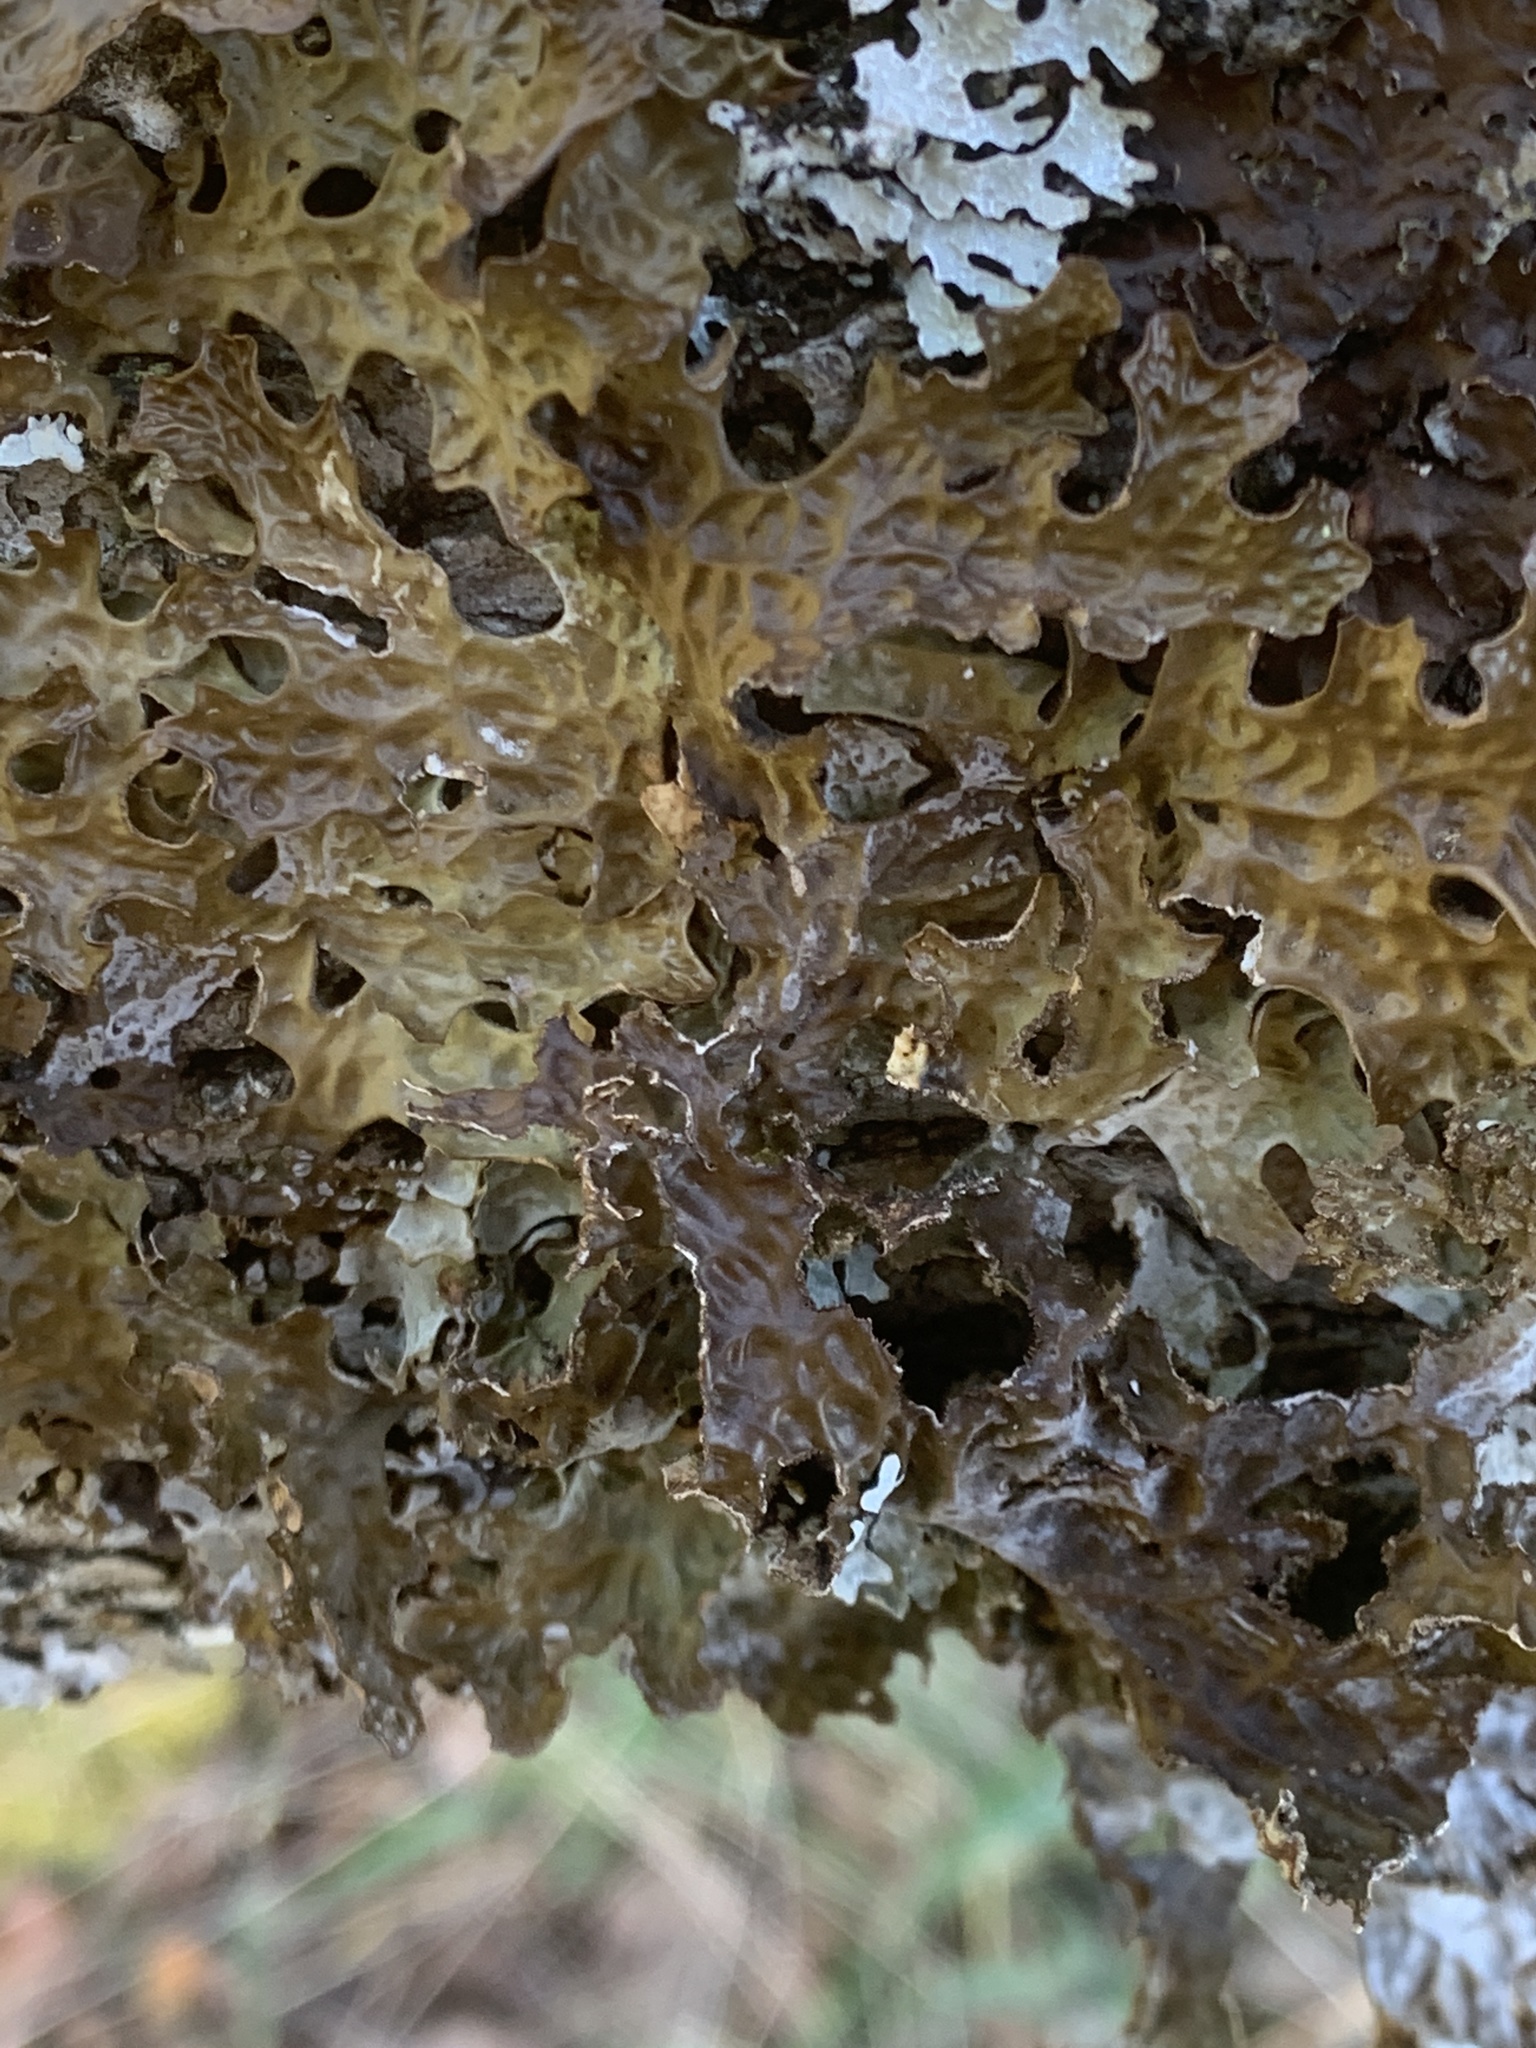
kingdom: Fungi
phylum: Ascomycota
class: Lecanoromycetes
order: Peltigerales
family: Lobariaceae
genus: Lobaria
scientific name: Lobaria pulmonaria
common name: Lungwort
